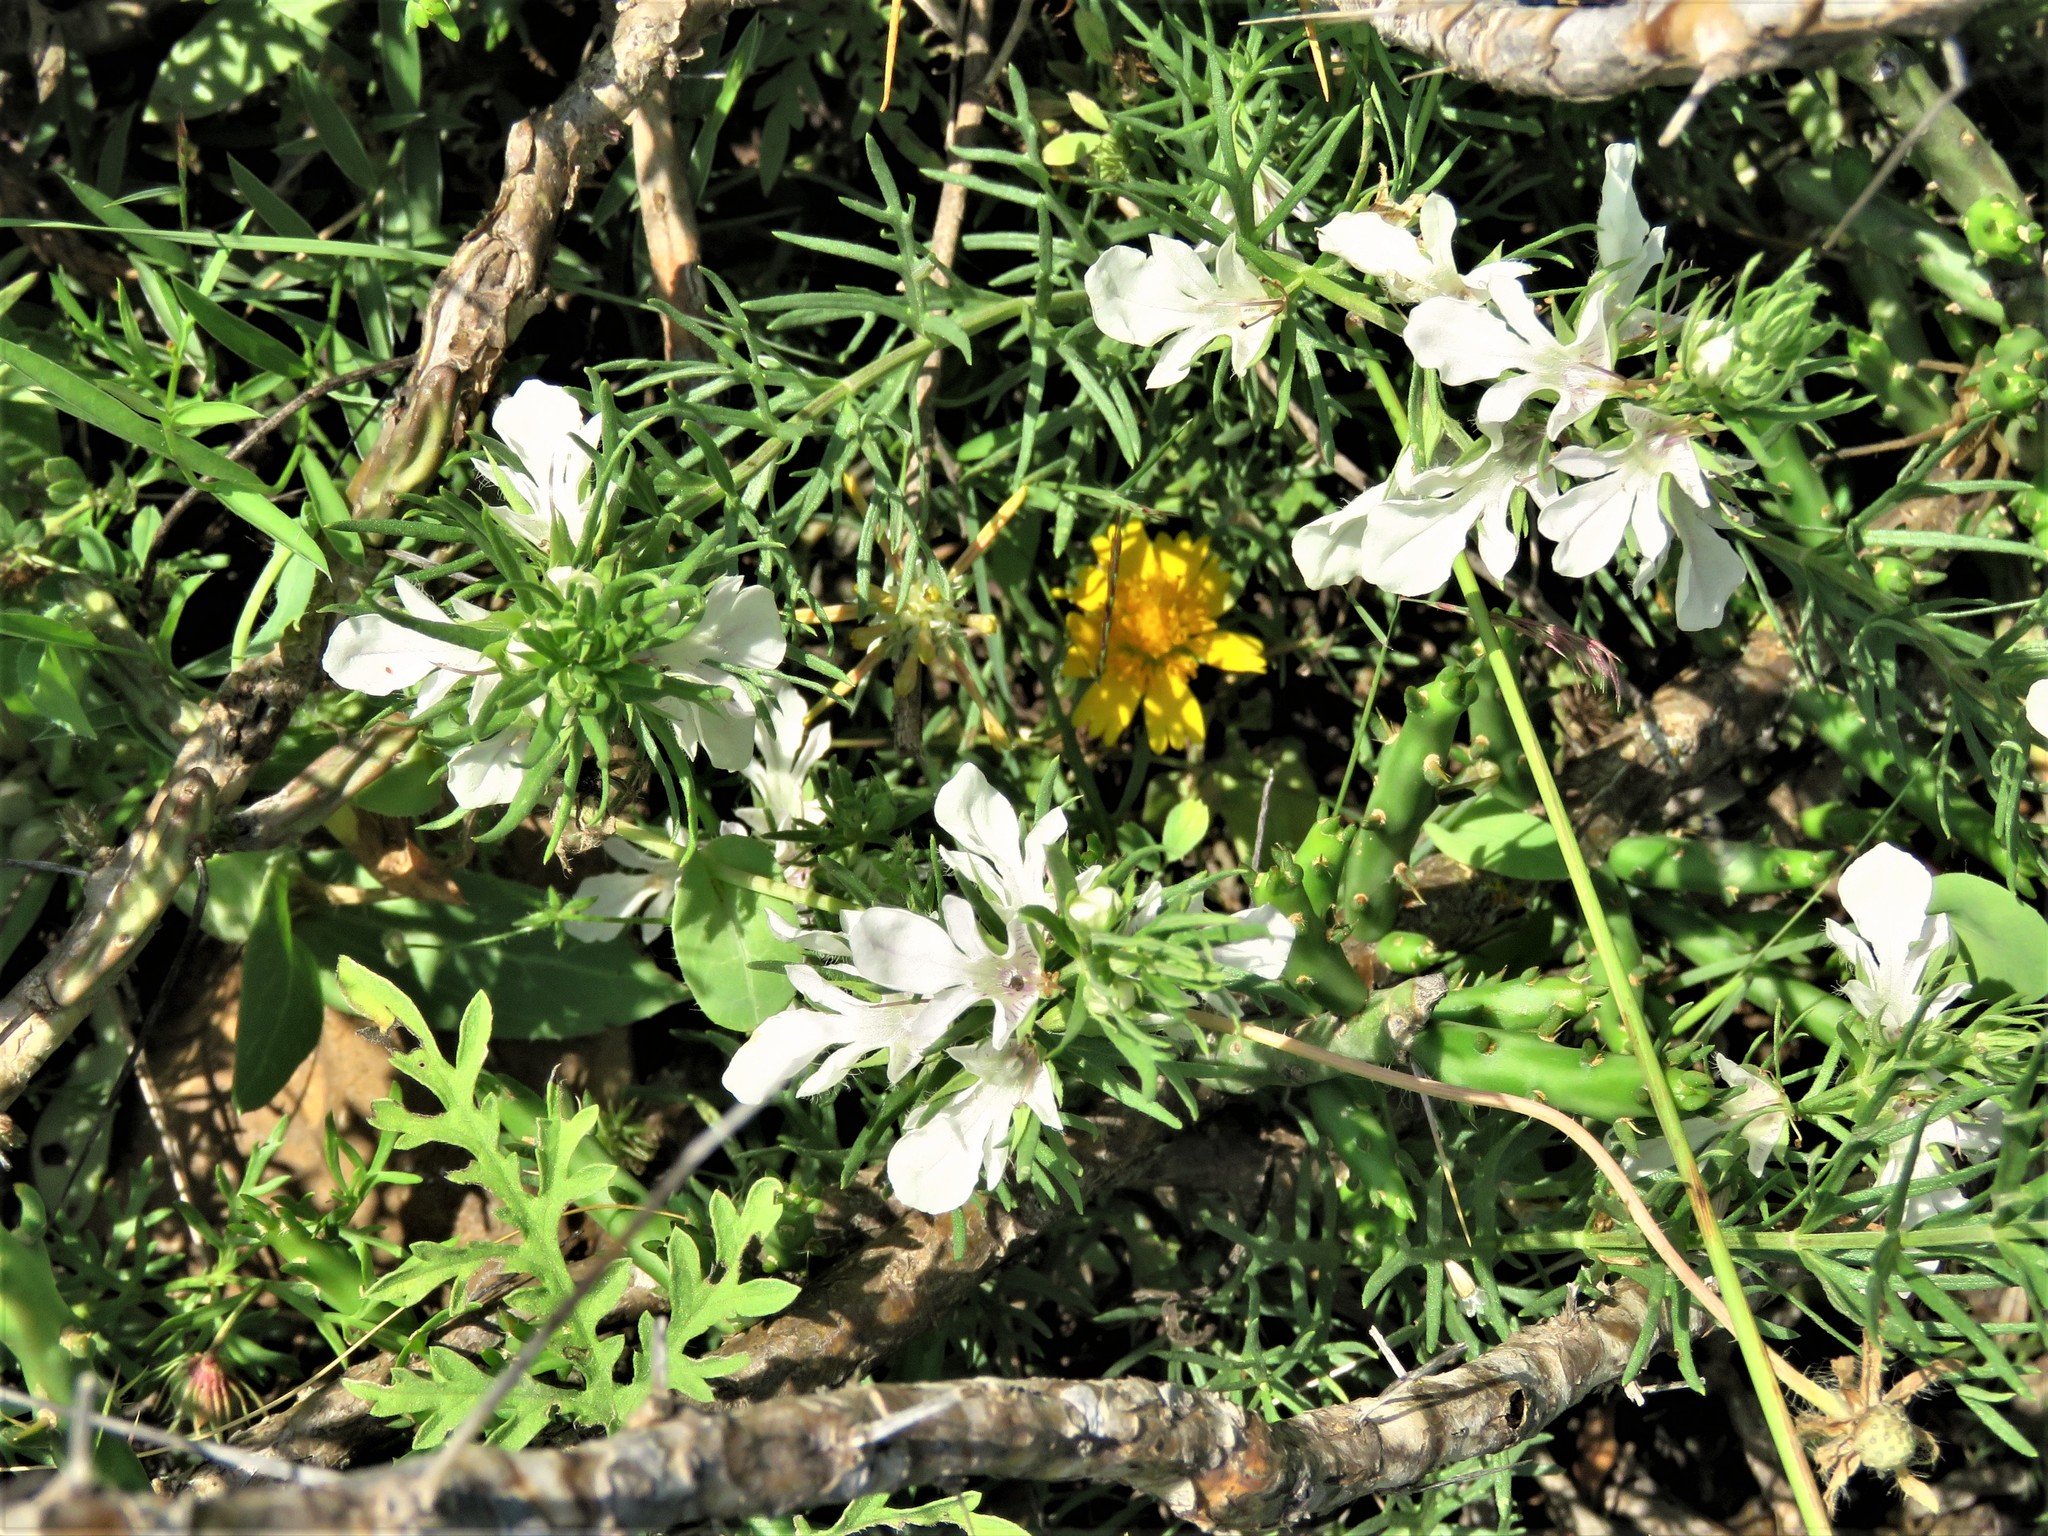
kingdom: Plantae
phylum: Tracheophyta
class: Magnoliopsida
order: Lamiales
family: Lamiaceae
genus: Teucrium
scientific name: Teucrium laciniatum
